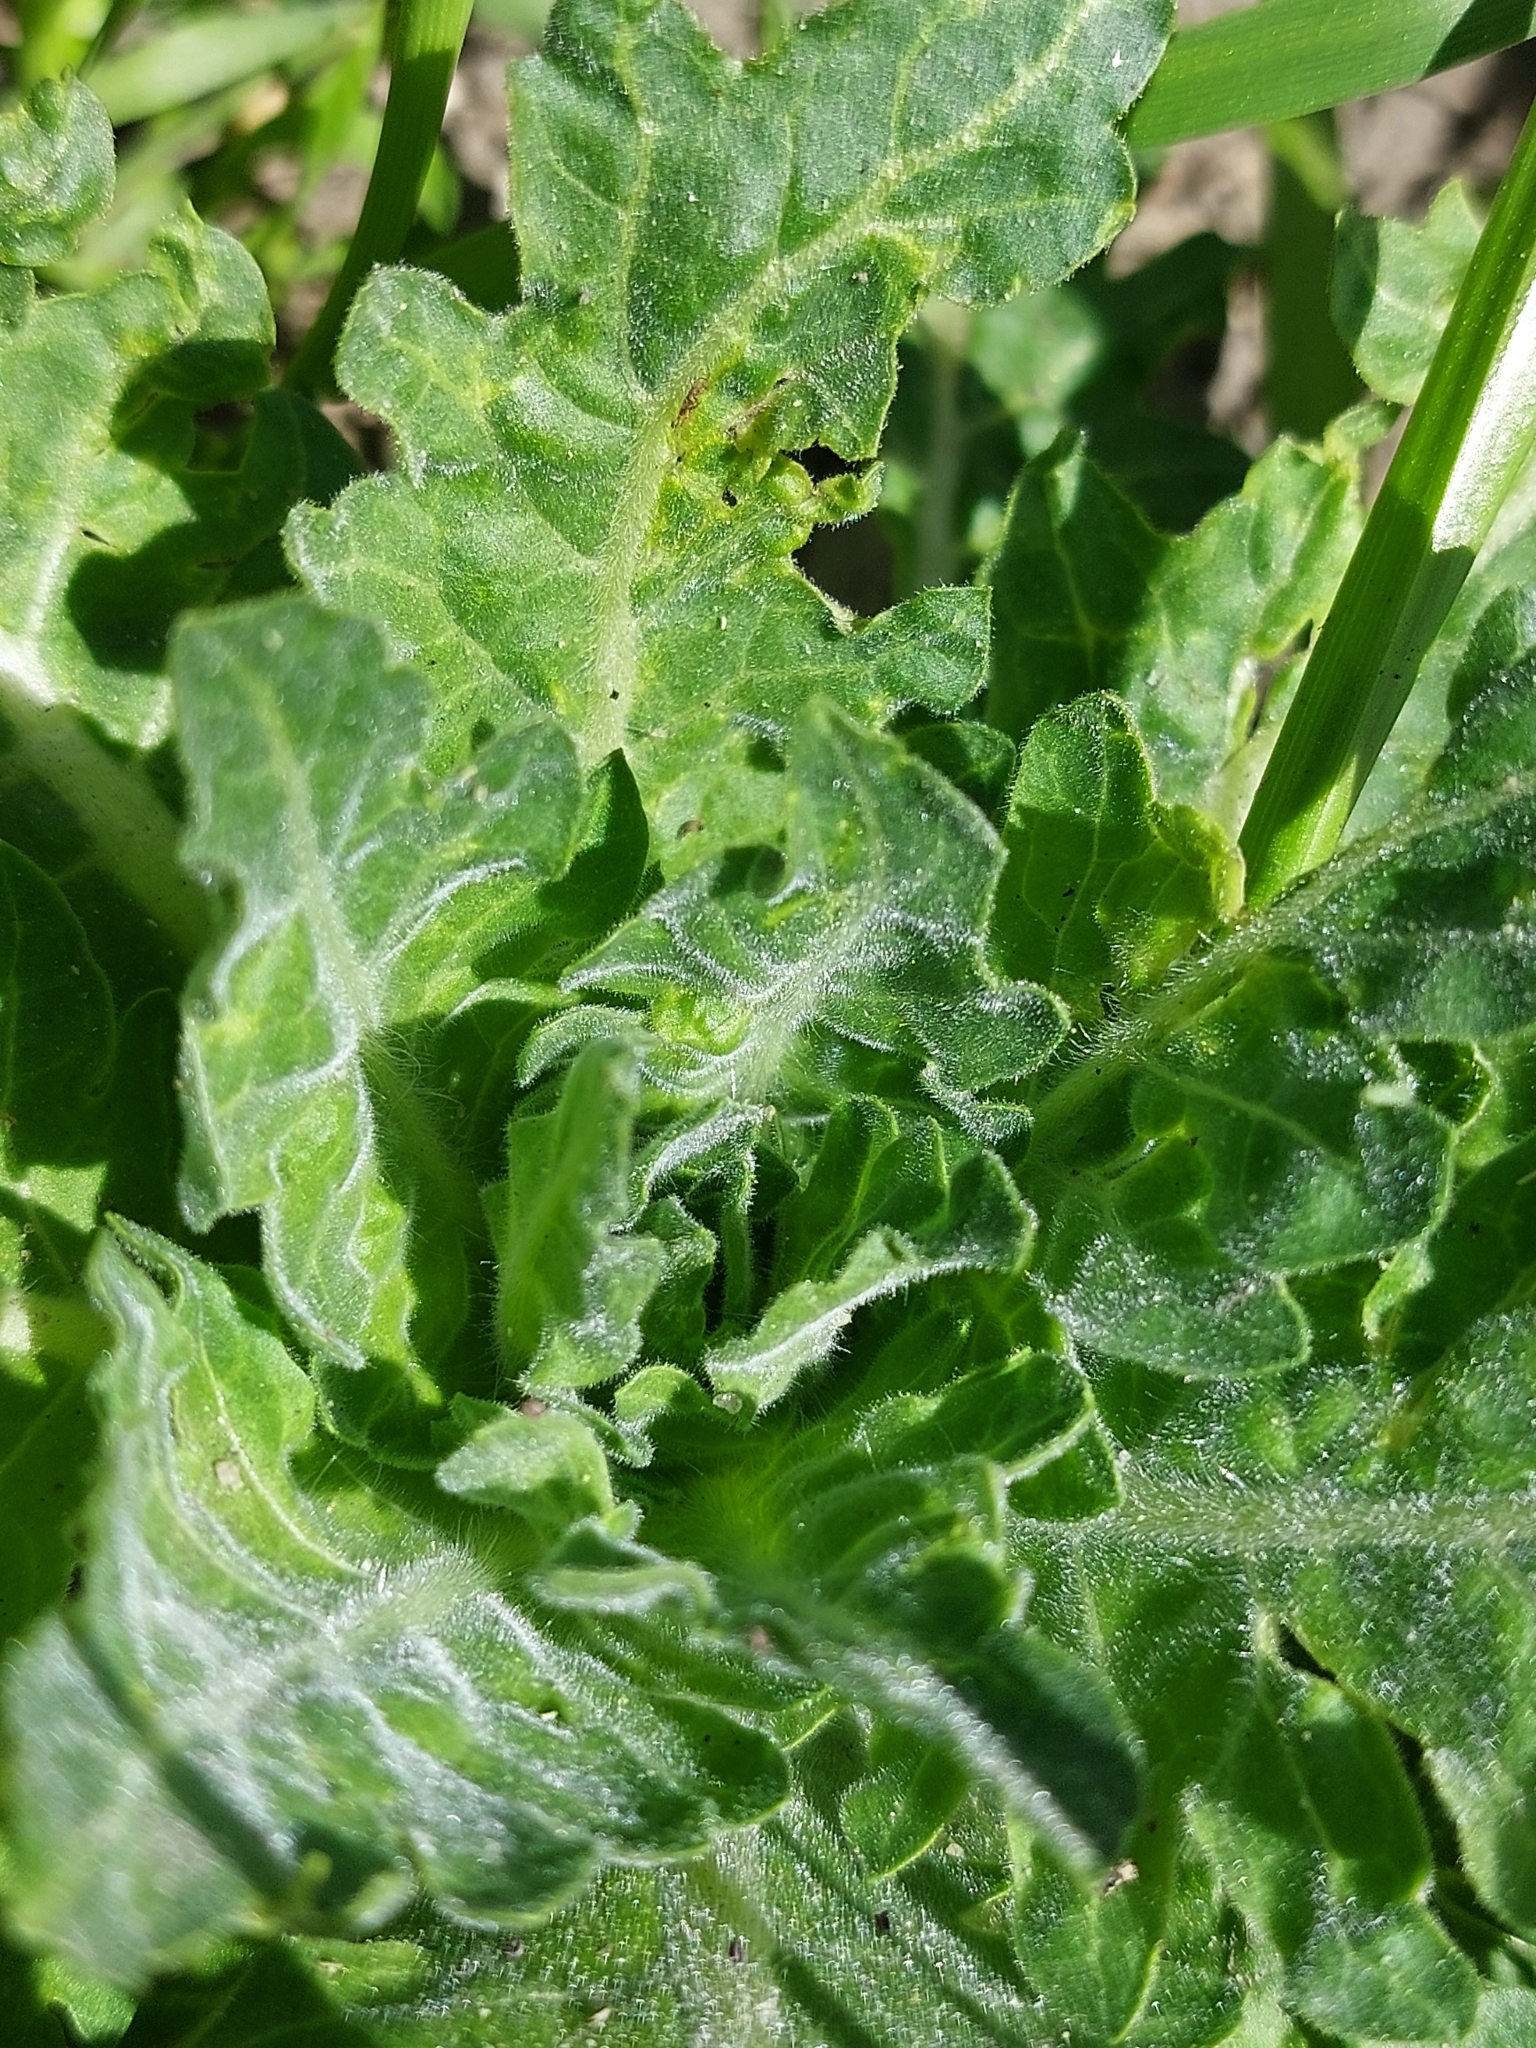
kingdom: Plantae
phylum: Tracheophyta
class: Magnoliopsida
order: Solanales
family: Solanaceae
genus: Hyoscyamus
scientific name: Hyoscyamus niger
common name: Henbane
